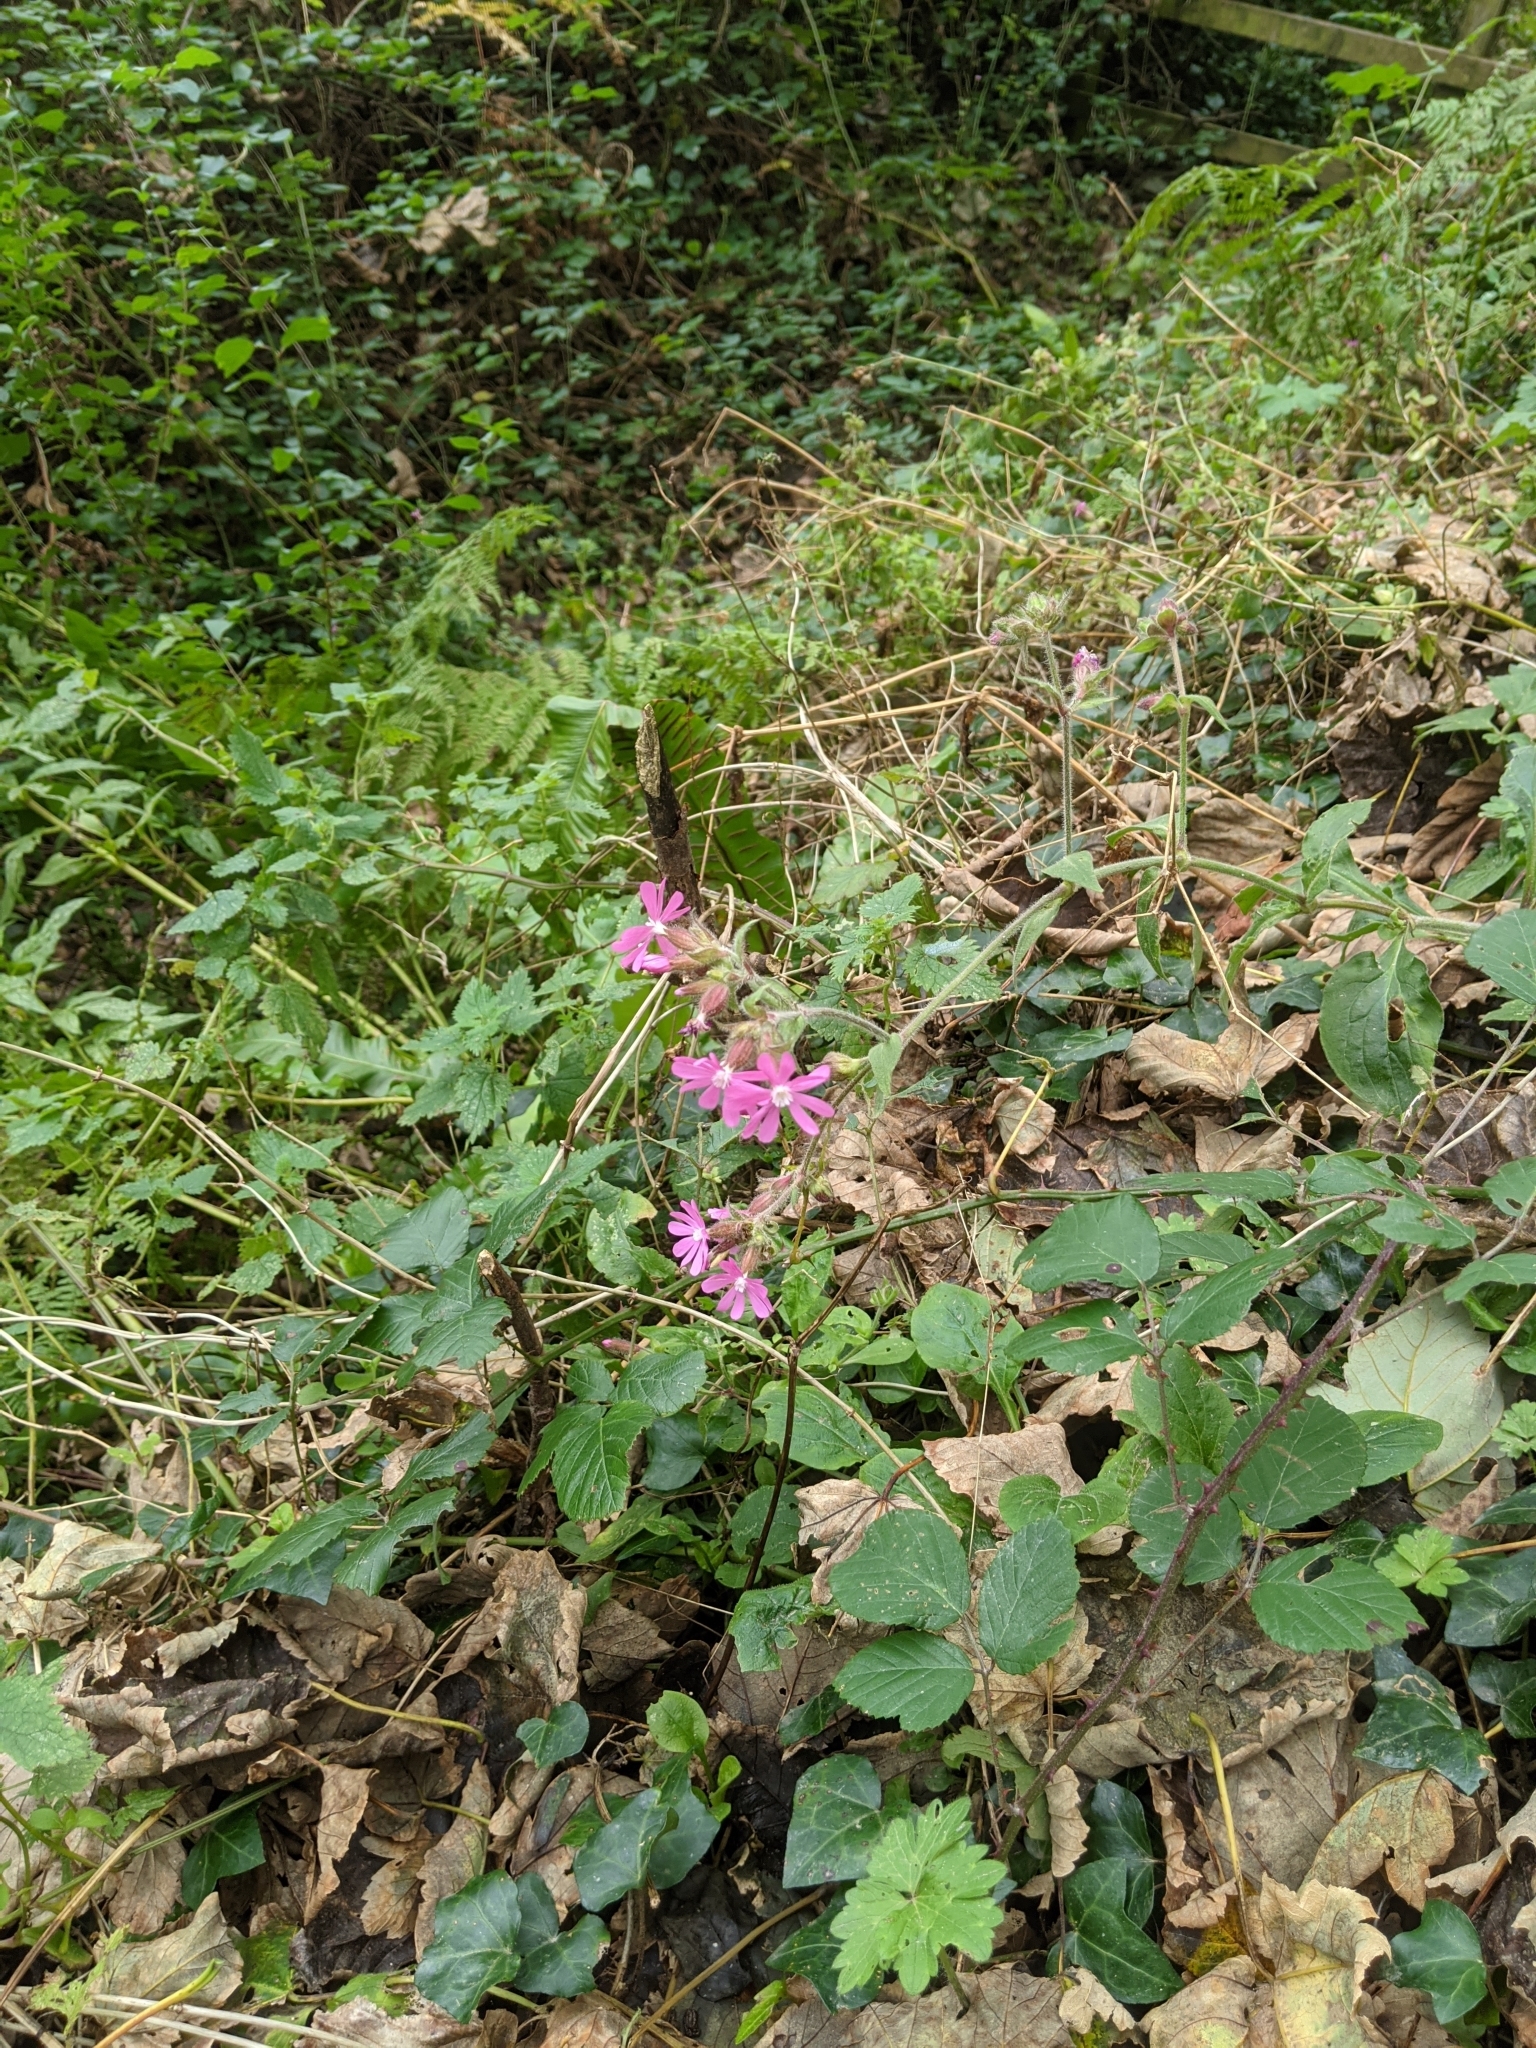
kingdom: Plantae
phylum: Tracheophyta
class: Magnoliopsida
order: Caryophyllales
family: Caryophyllaceae
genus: Silene
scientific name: Silene dioica
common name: Red campion
